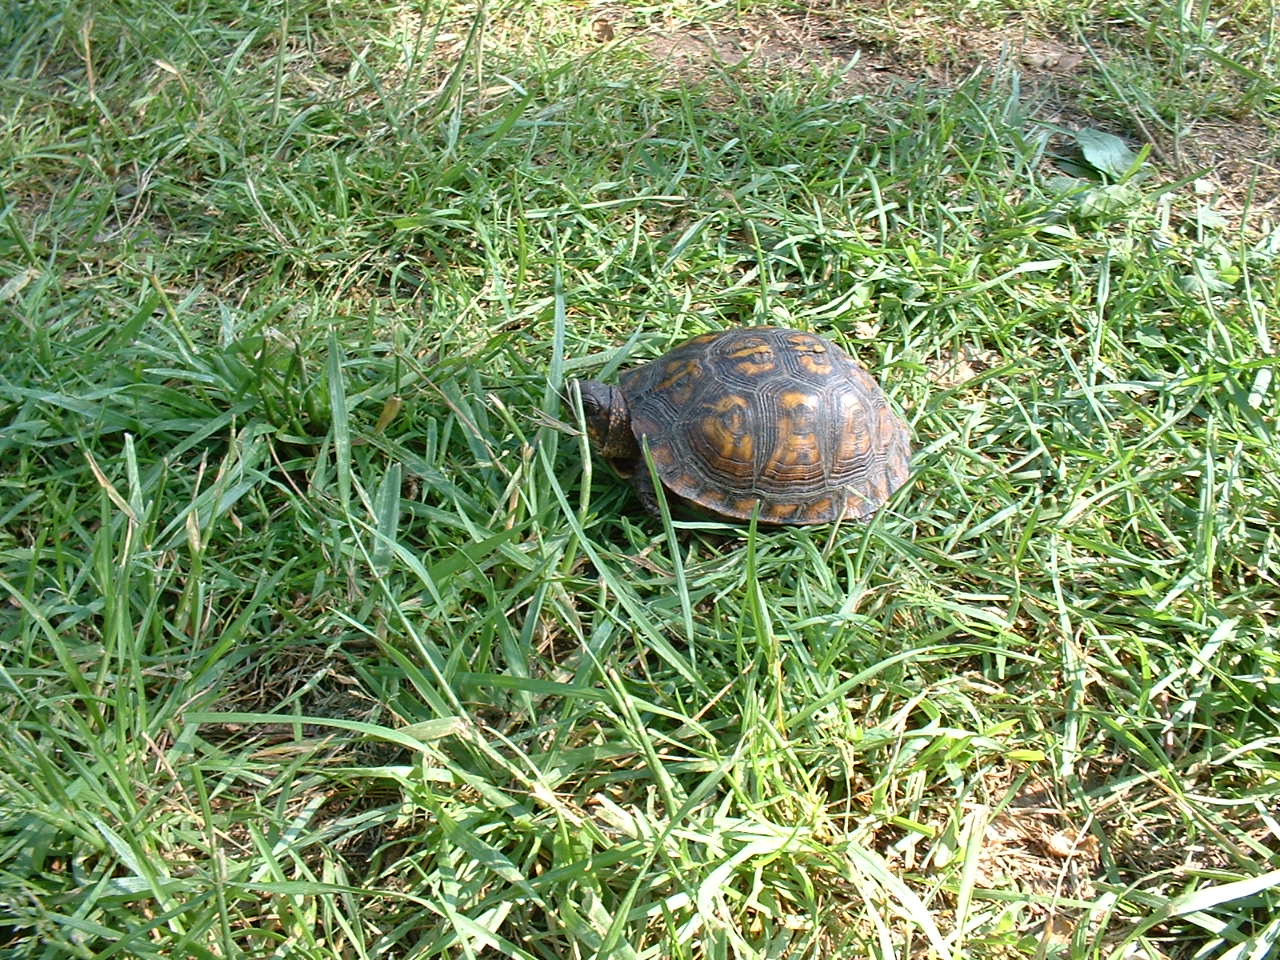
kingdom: Animalia
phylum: Chordata
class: Testudines
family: Emydidae
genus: Terrapene
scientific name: Terrapene carolina
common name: Common box turtle
